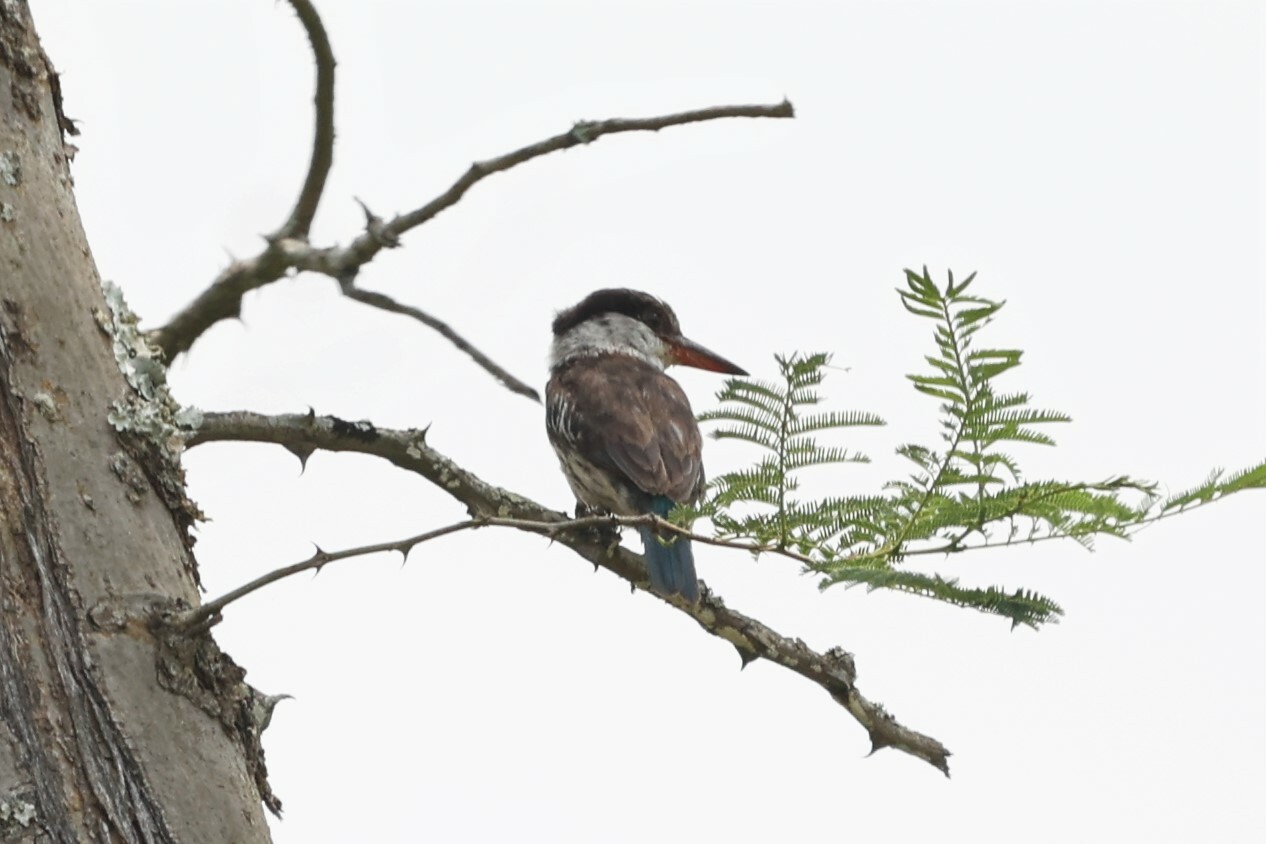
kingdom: Animalia
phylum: Chordata
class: Aves
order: Coraciiformes
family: Alcedinidae
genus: Halcyon
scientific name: Halcyon chelicuti
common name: Striped kingfisher
